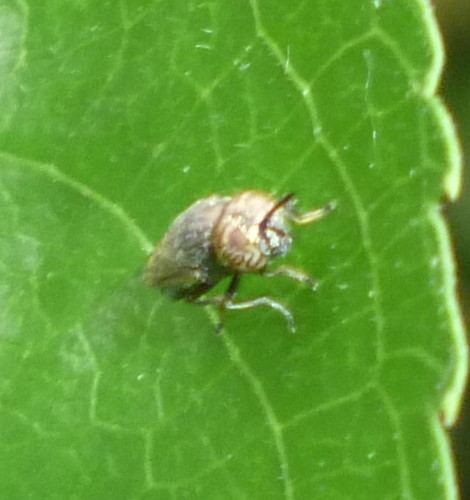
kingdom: Animalia
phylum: Arthropoda
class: Insecta
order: Diptera
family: Syrphidae
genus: Orthonevra
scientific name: Orthonevra nitida
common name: Wavy mucksucker
